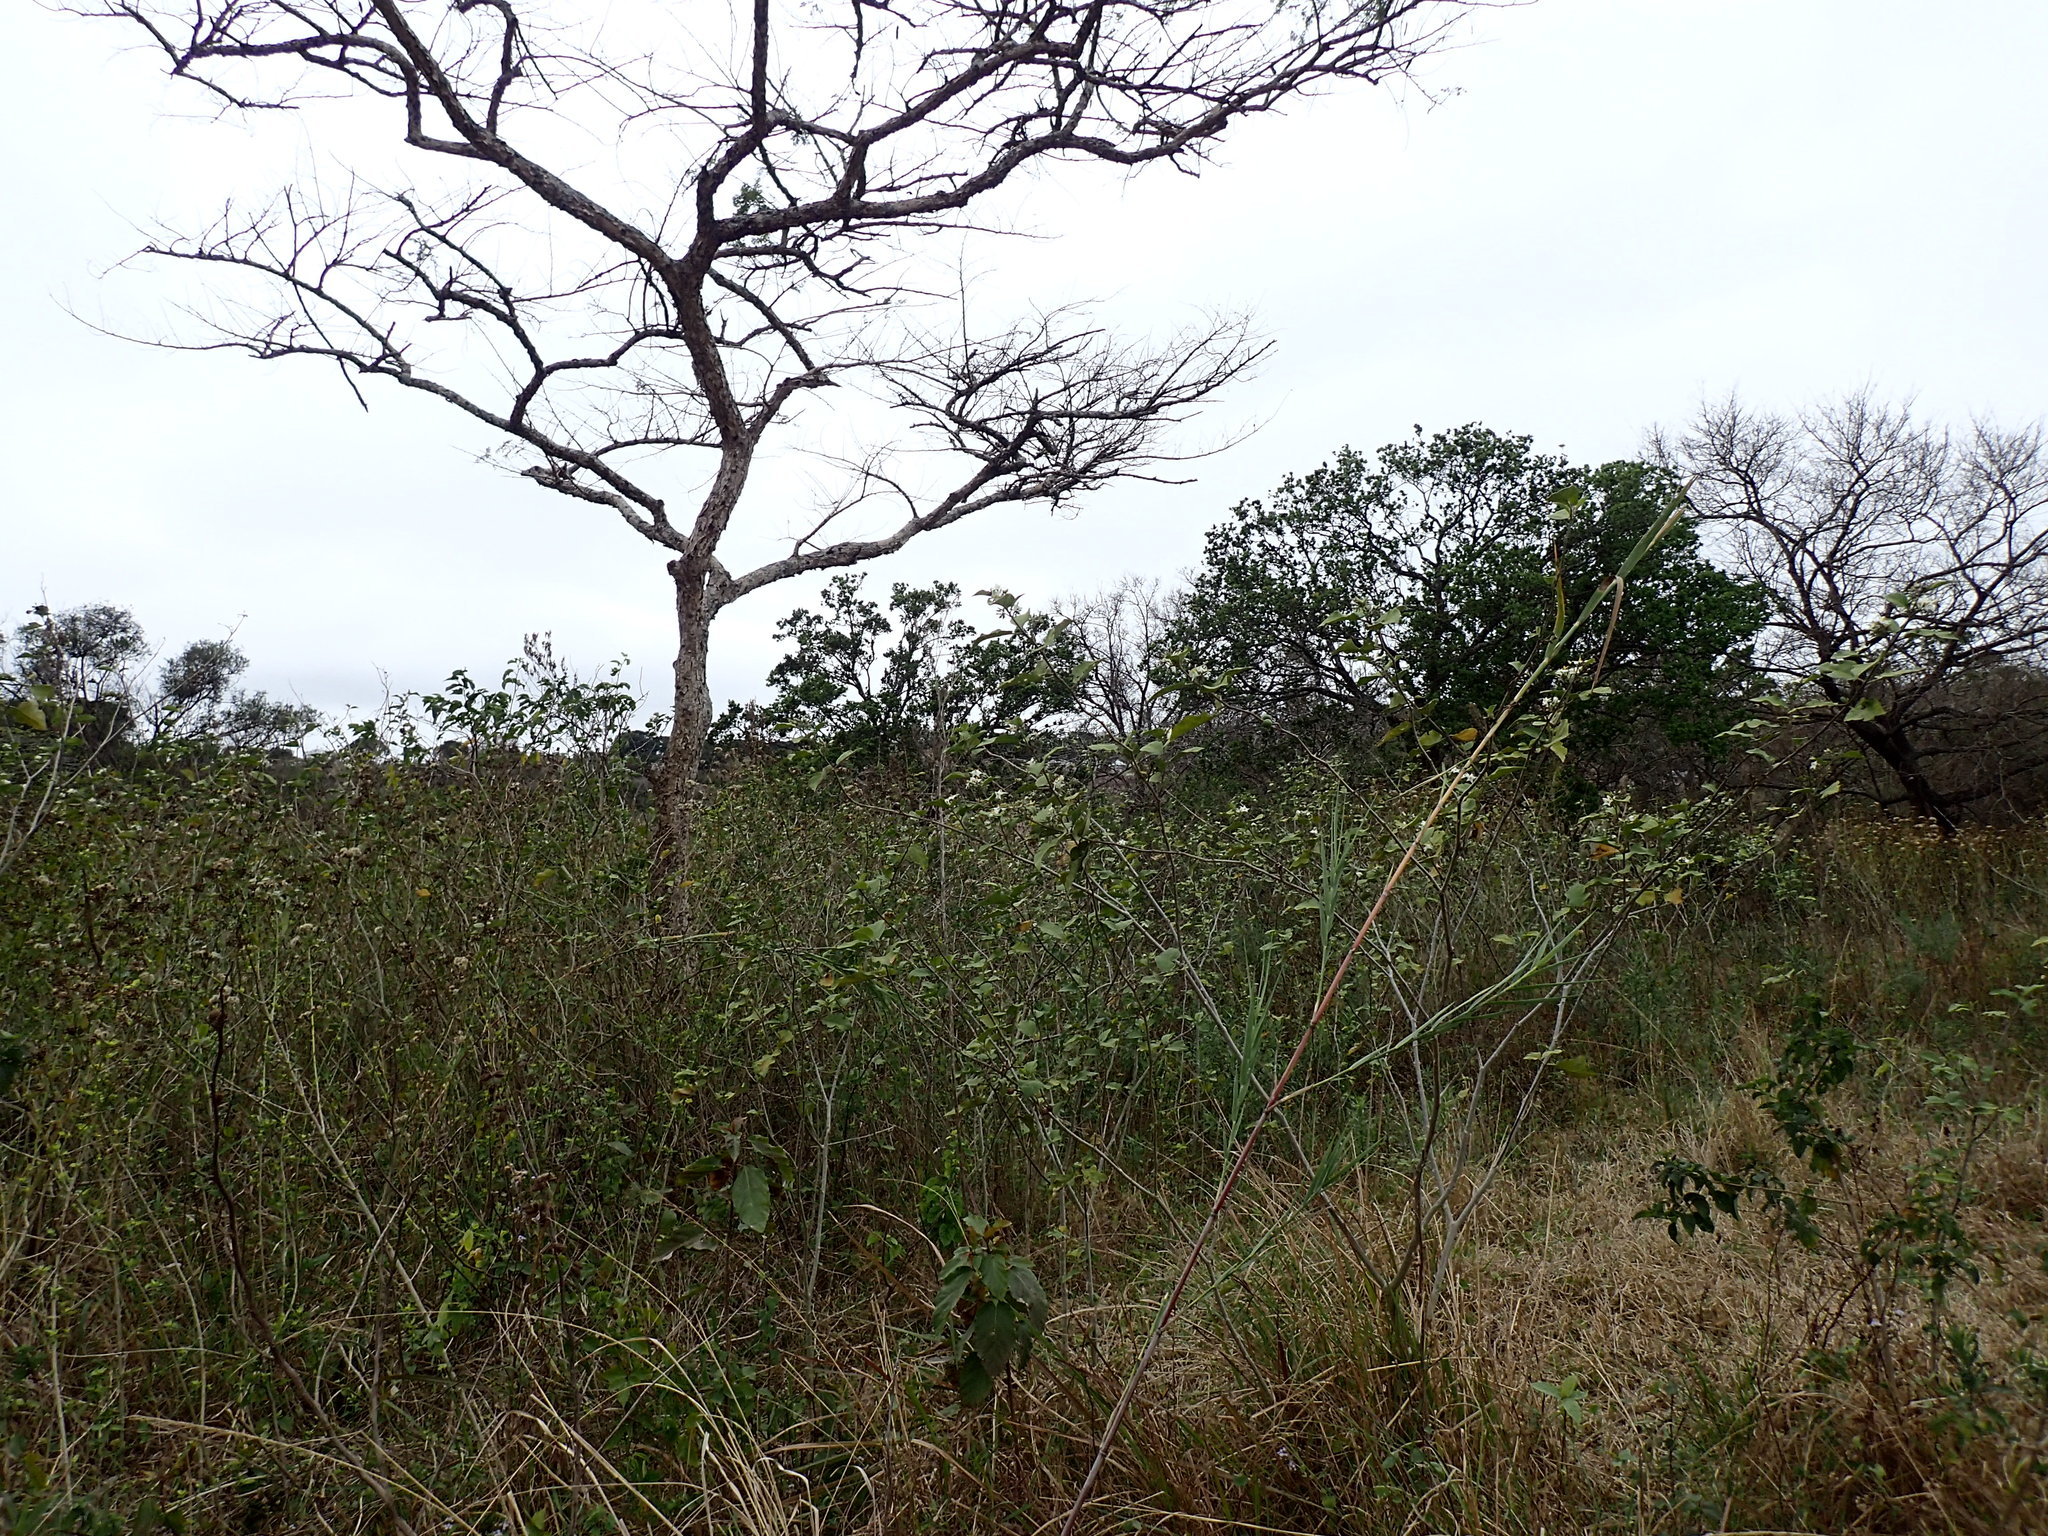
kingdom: Plantae
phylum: Tracheophyta
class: Magnoliopsida
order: Solanales
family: Solanaceae
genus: Solanum
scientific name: Solanum torvum
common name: Turkey berry
